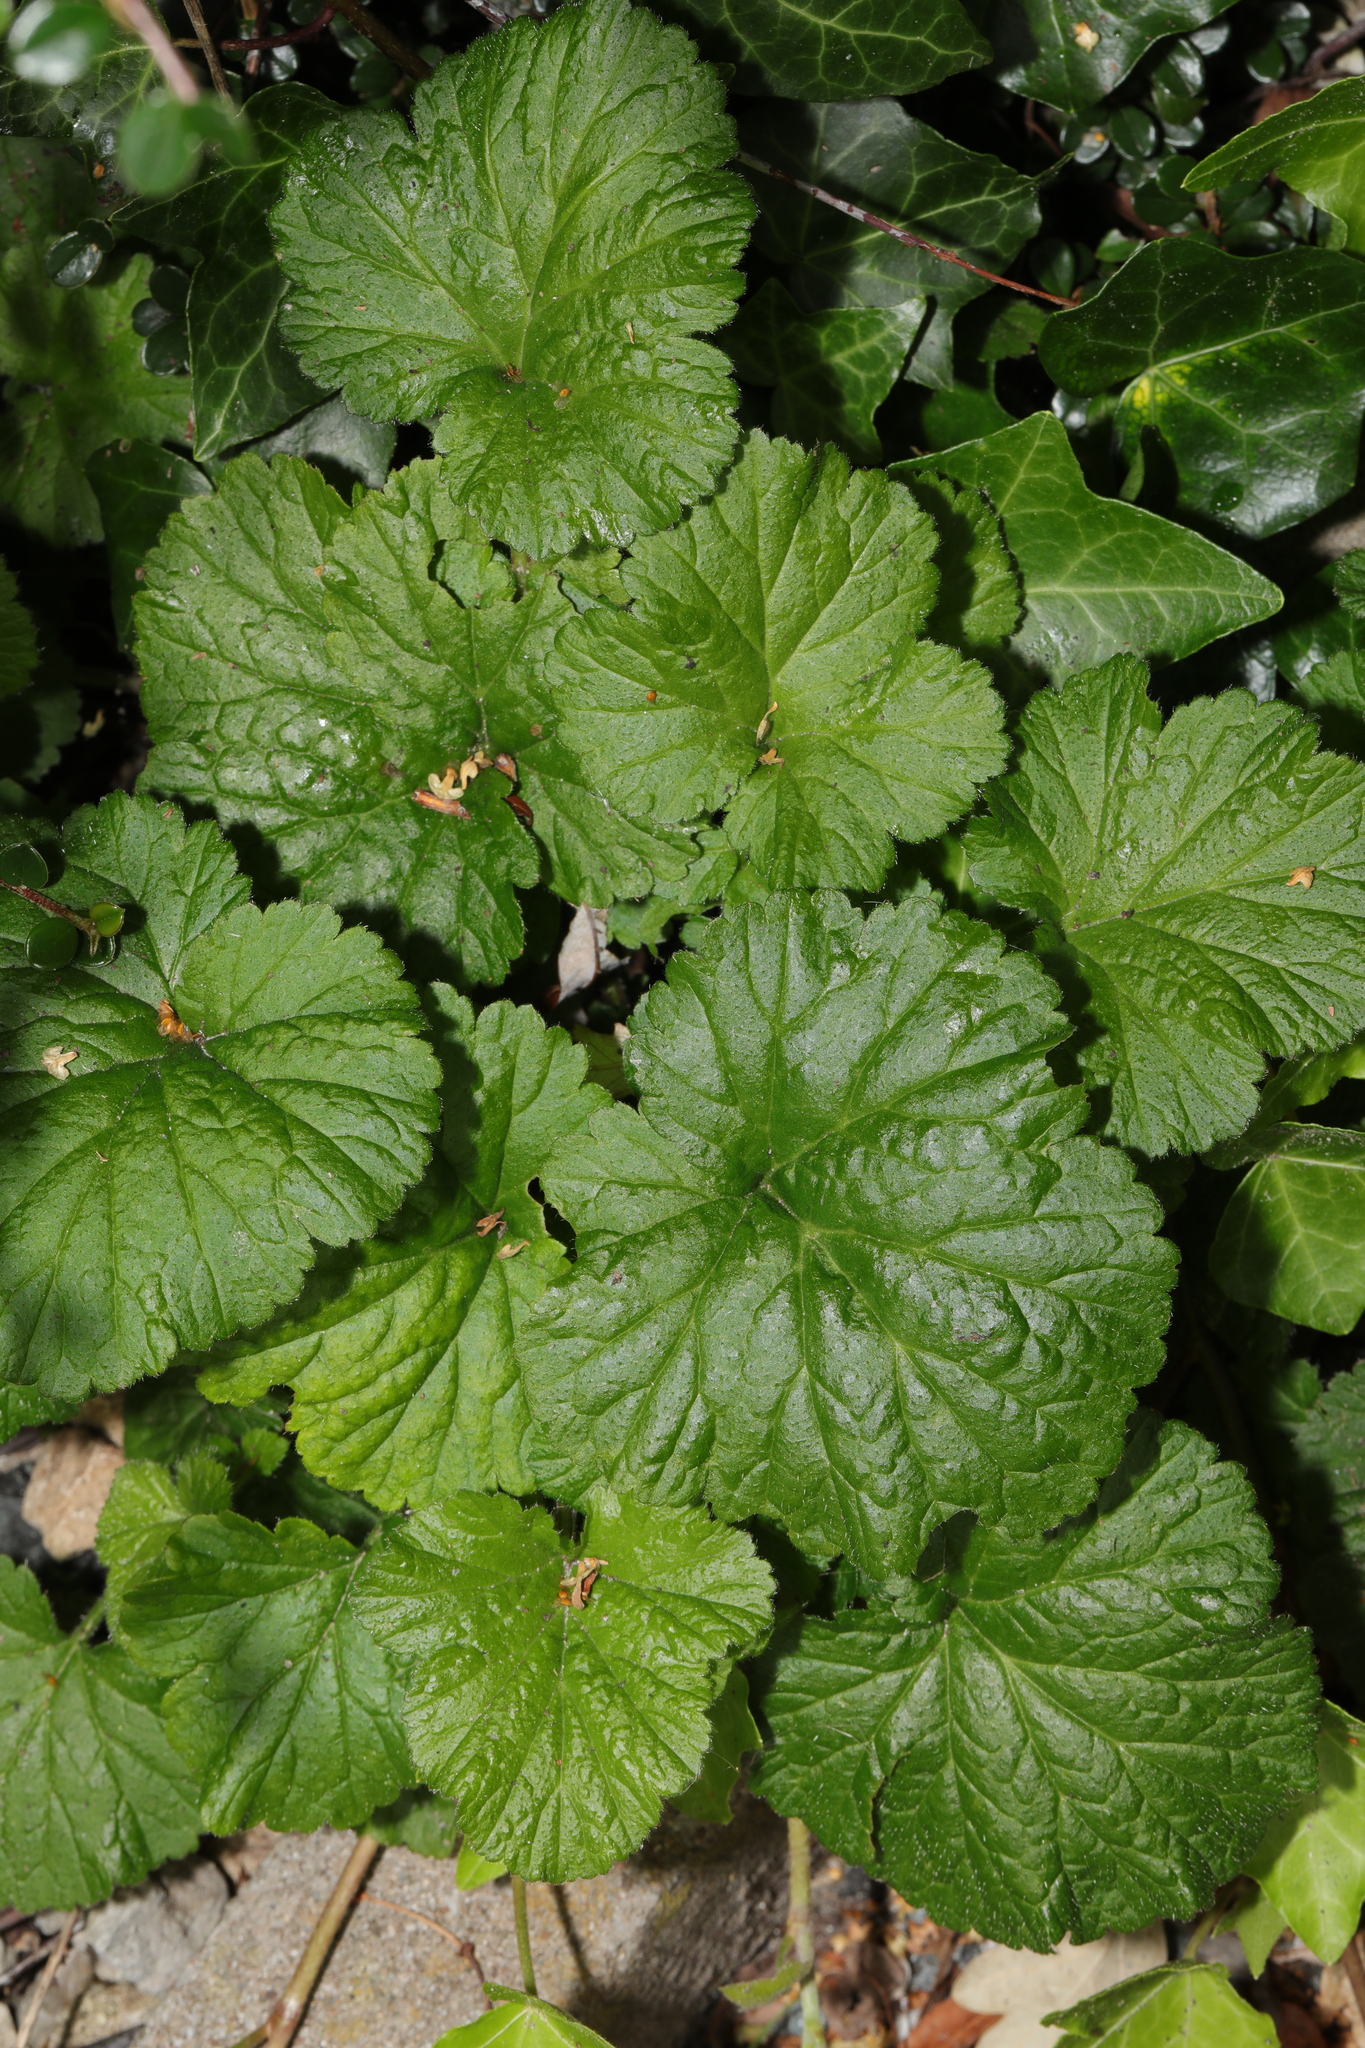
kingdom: Plantae
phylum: Tracheophyta
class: Magnoliopsida
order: Rosales
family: Rosaceae
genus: Geum
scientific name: Geum urbanum
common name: Wood avens
